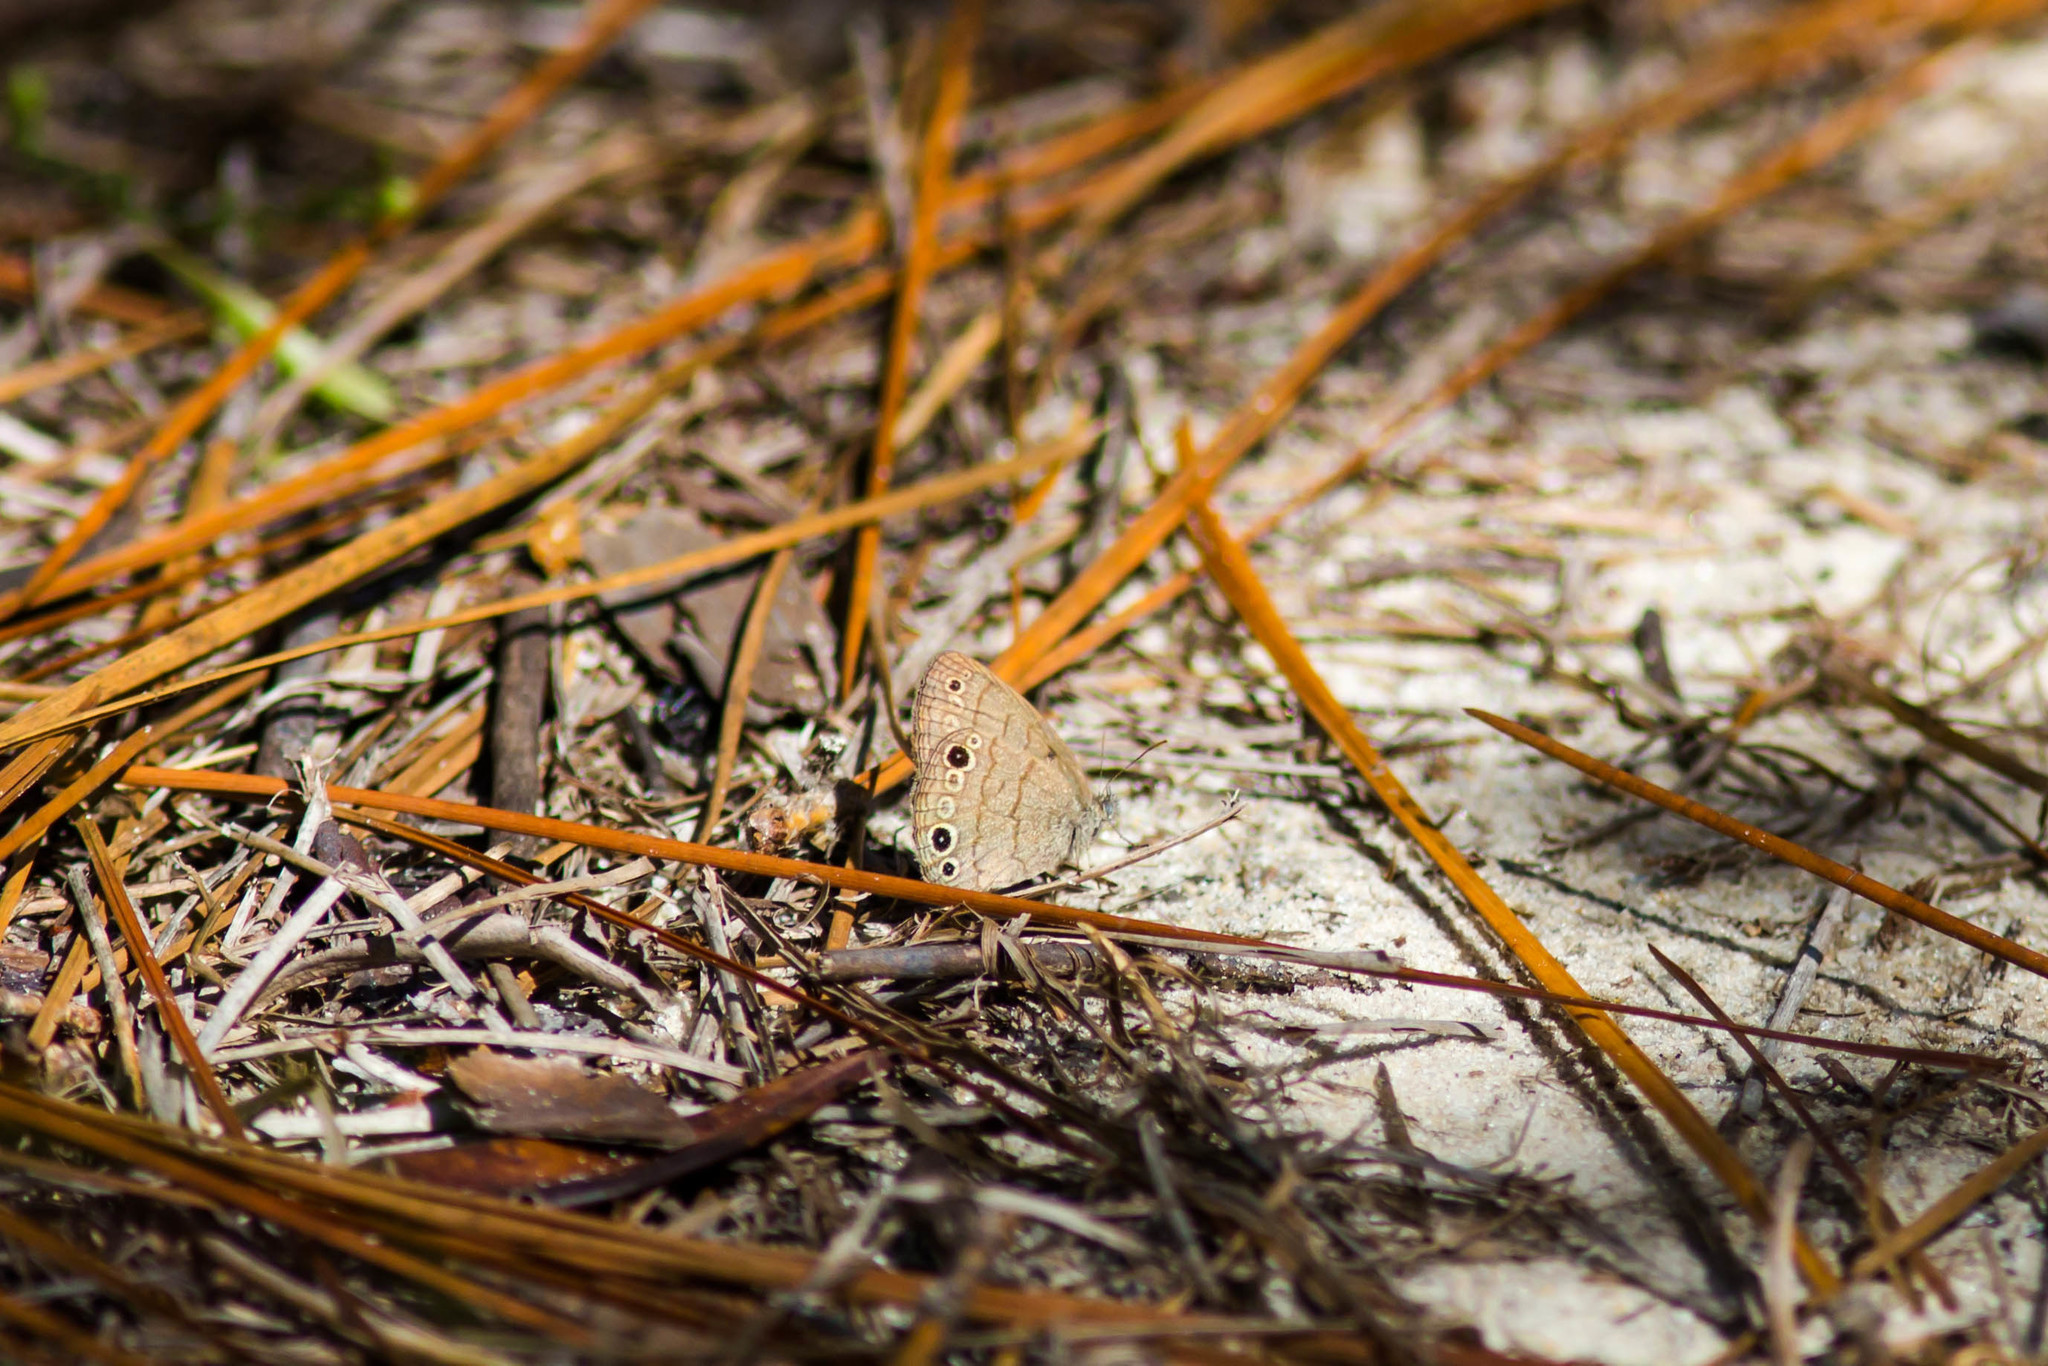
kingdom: Animalia
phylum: Arthropoda
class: Insecta
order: Lepidoptera
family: Nymphalidae
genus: Hermeuptychia
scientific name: Hermeuptychia hermes
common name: Hermes satyr
